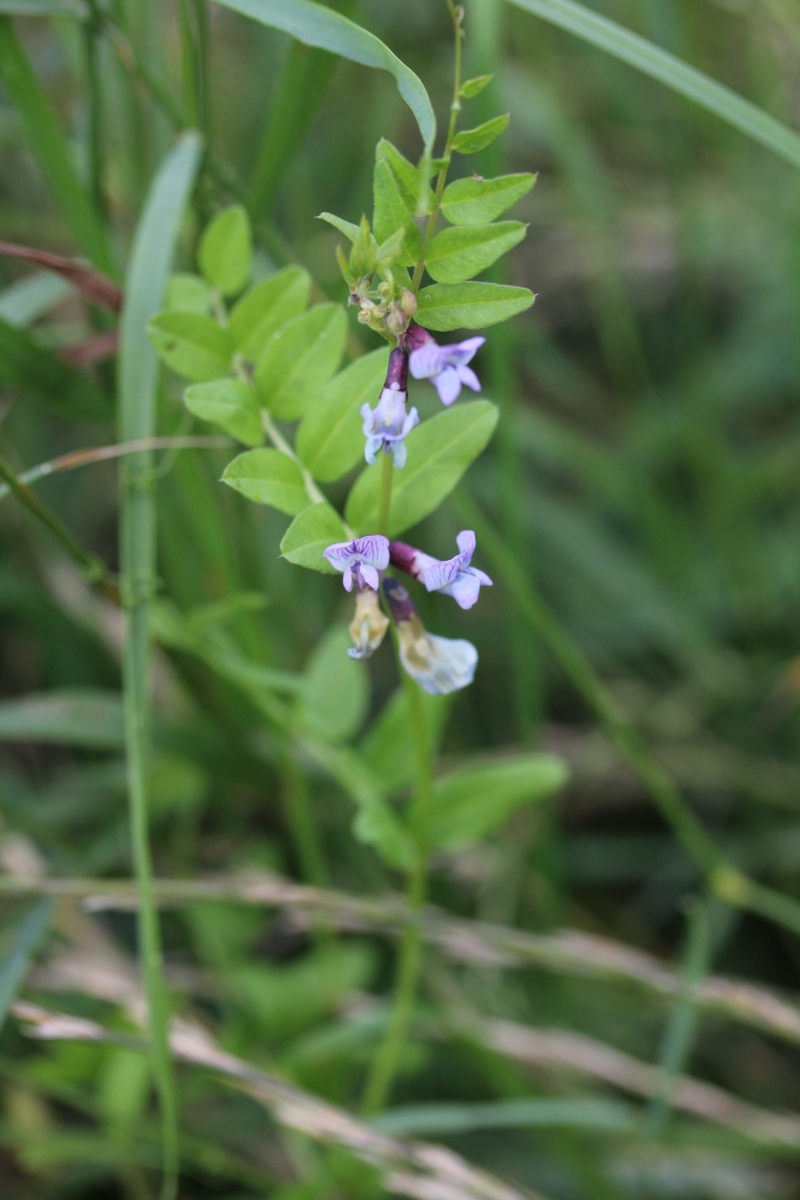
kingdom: Plantae
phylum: Tracheophyta
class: Magnoliopsida
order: Fabales
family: Fabaceae
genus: Vicia
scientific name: Vicia sepium
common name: Bush vetch
